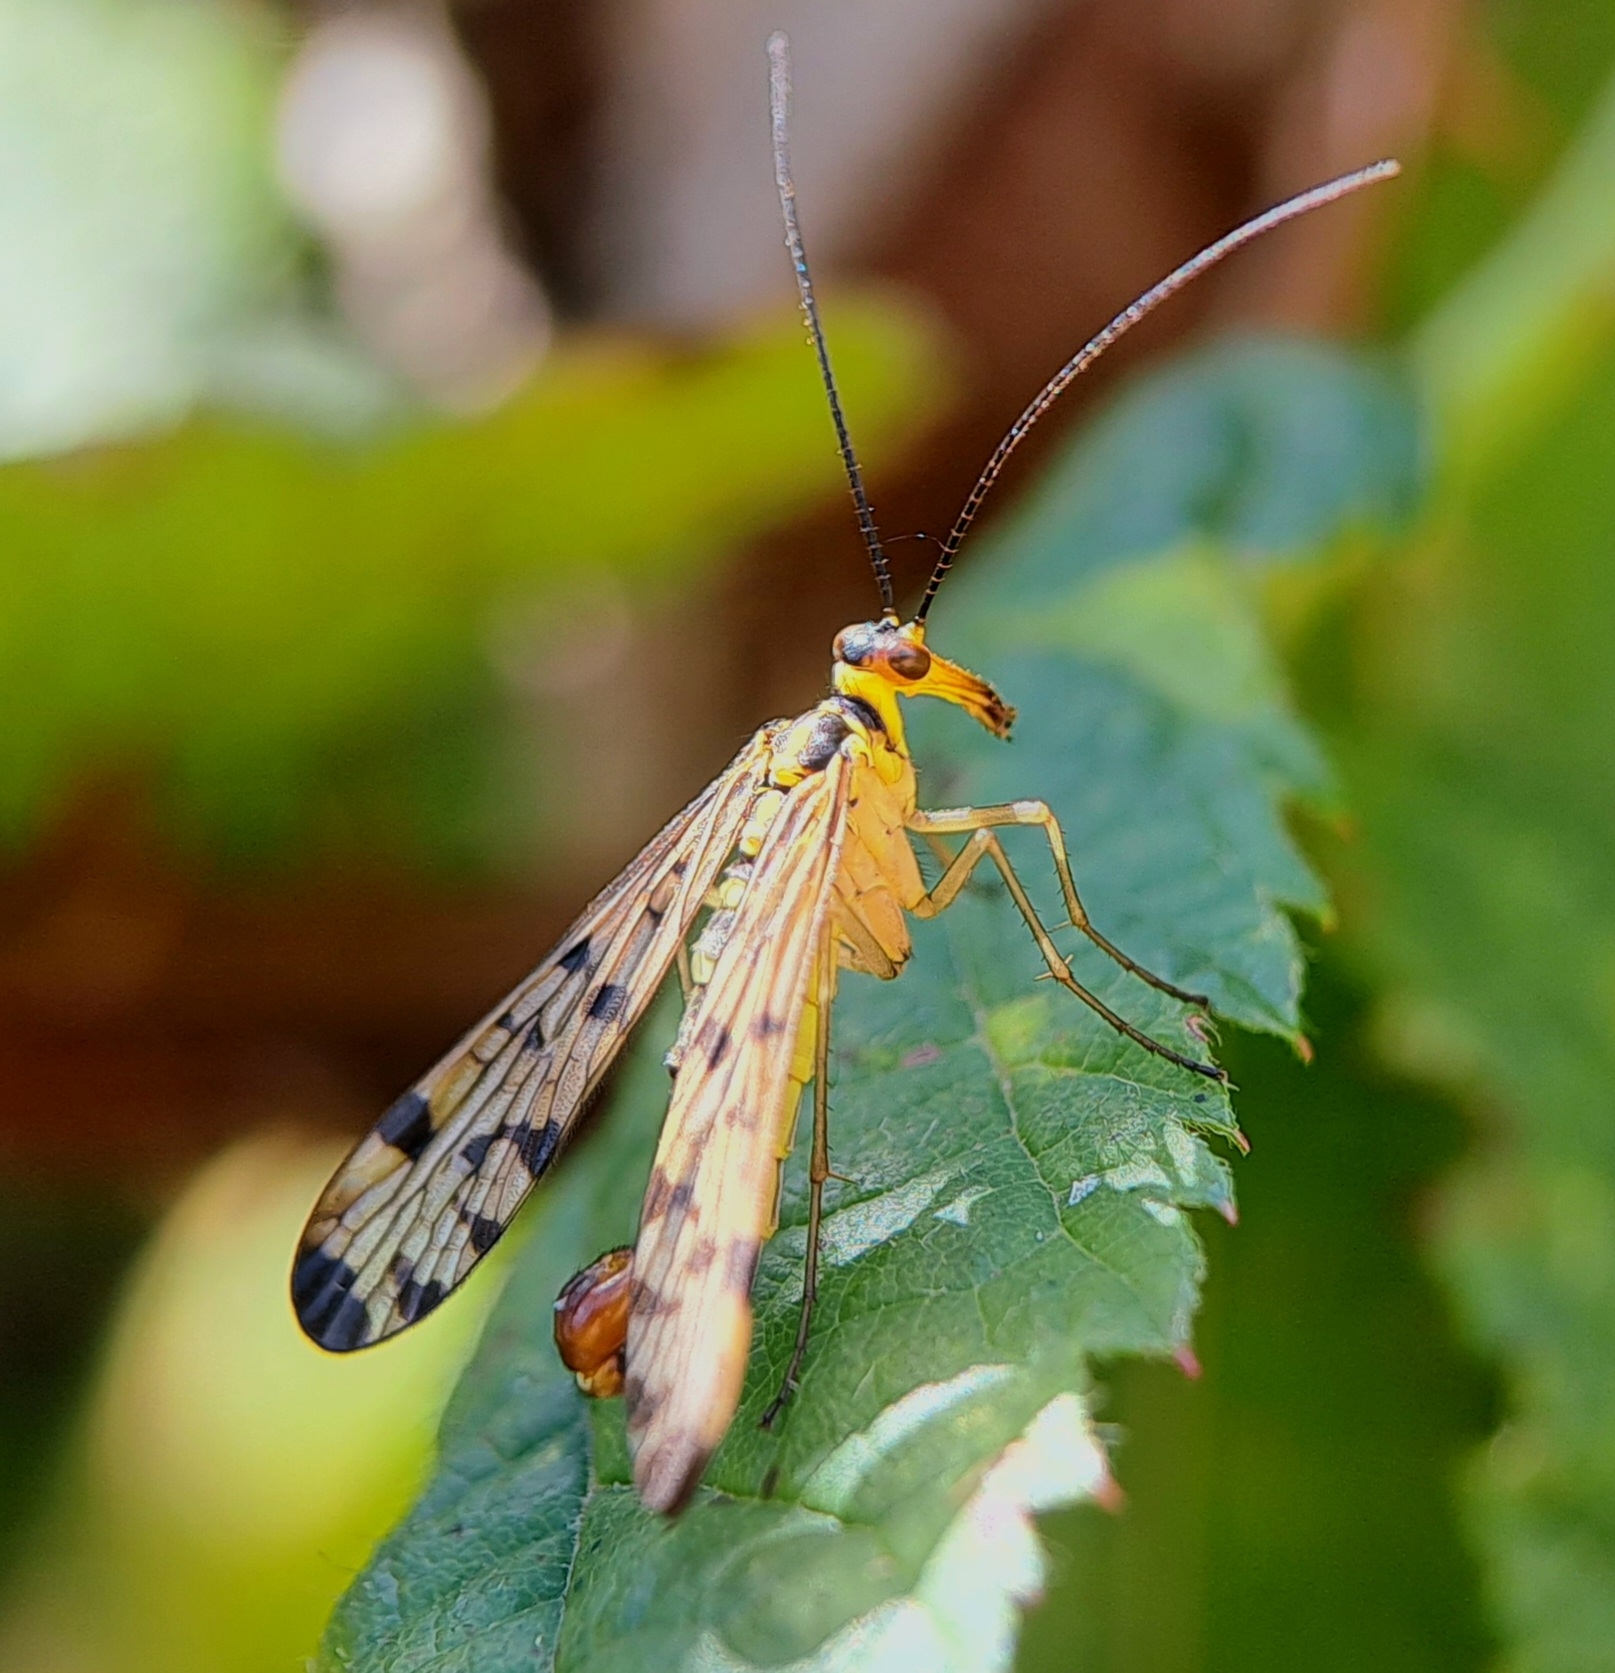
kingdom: Animalia
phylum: Arthropoda
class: Insecta
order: Mecoptera
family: Panorpidae
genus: Panorpa
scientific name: Panorpa germanica
